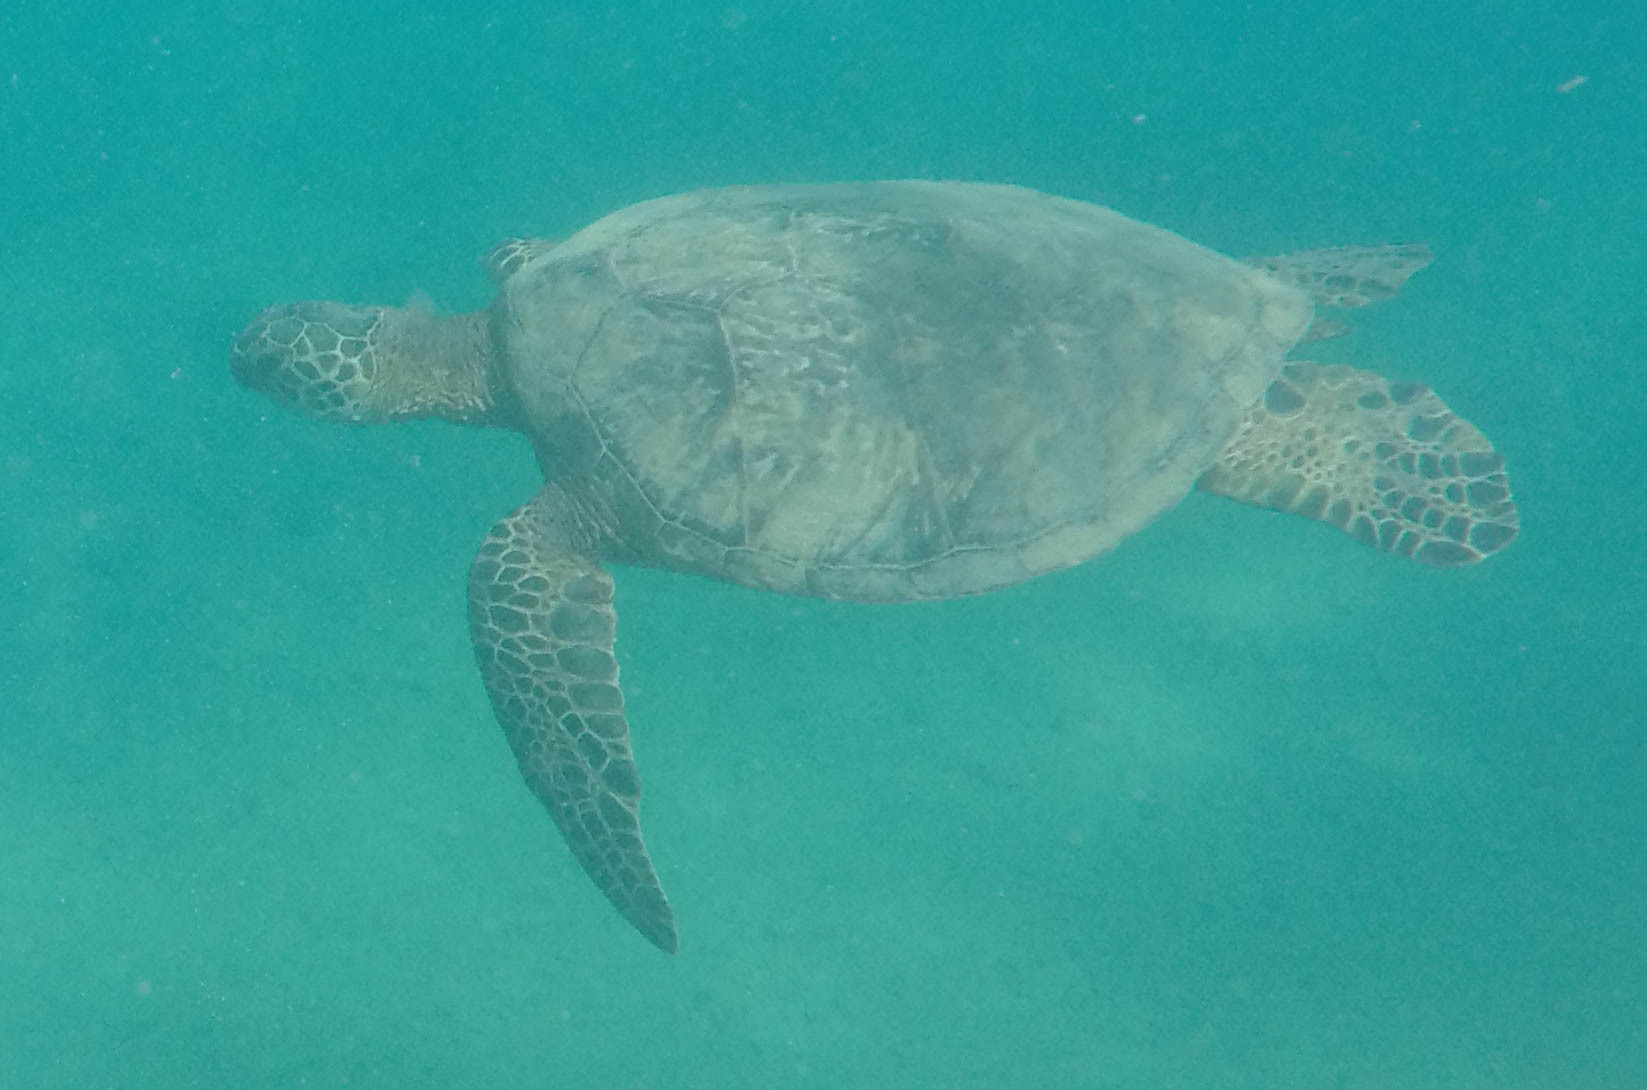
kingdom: Animalia
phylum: Chordata
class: Testudines
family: Cheloniidae
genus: Chelonia
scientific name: Chelonia mydas
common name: Green turtle
